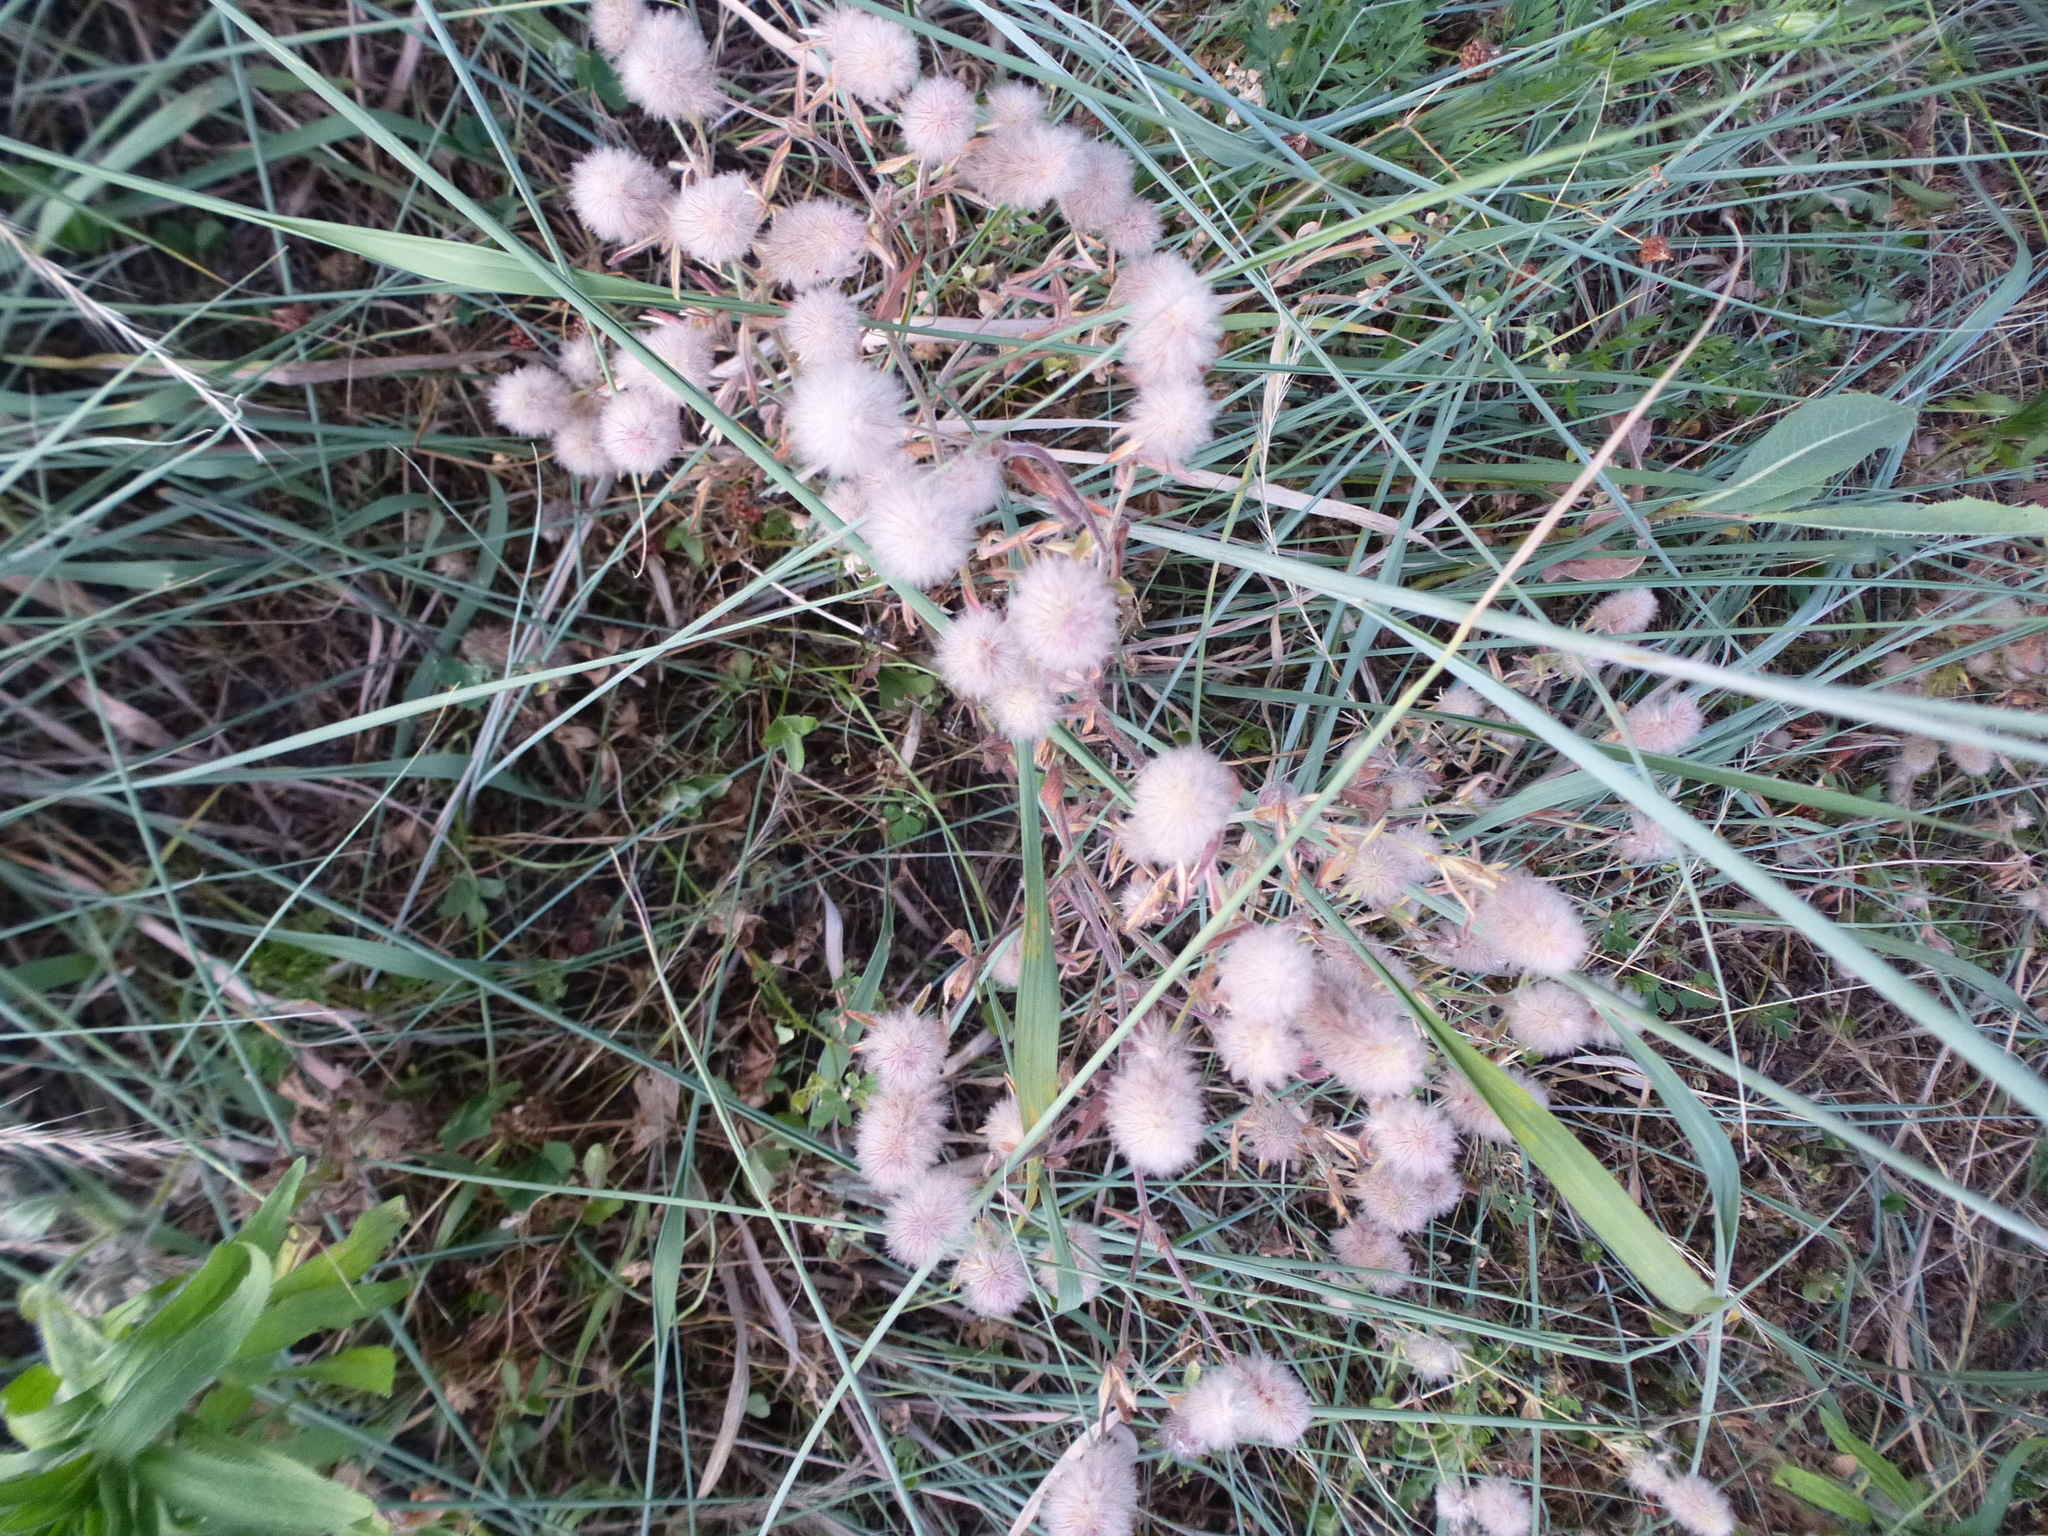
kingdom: Plantae
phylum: Tracheophyta
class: Magnoliopsida
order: Fabales
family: Fabaceae
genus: Trifolium
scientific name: Trifolium arvense
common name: Hare's-foot clover
